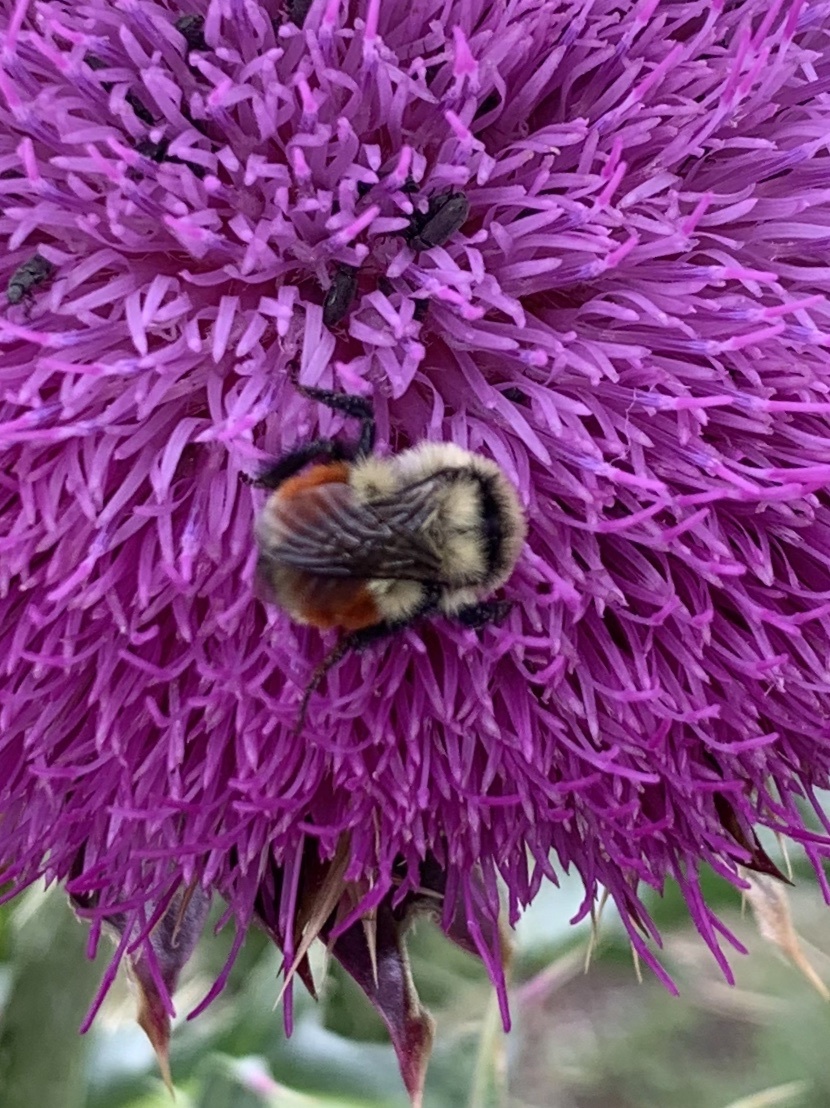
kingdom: Animalia
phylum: Arthropoda
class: Insecta
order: Hymenoptera
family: Apidae
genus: Bombus
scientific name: Bombus huntii
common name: Hunt bumble bee
